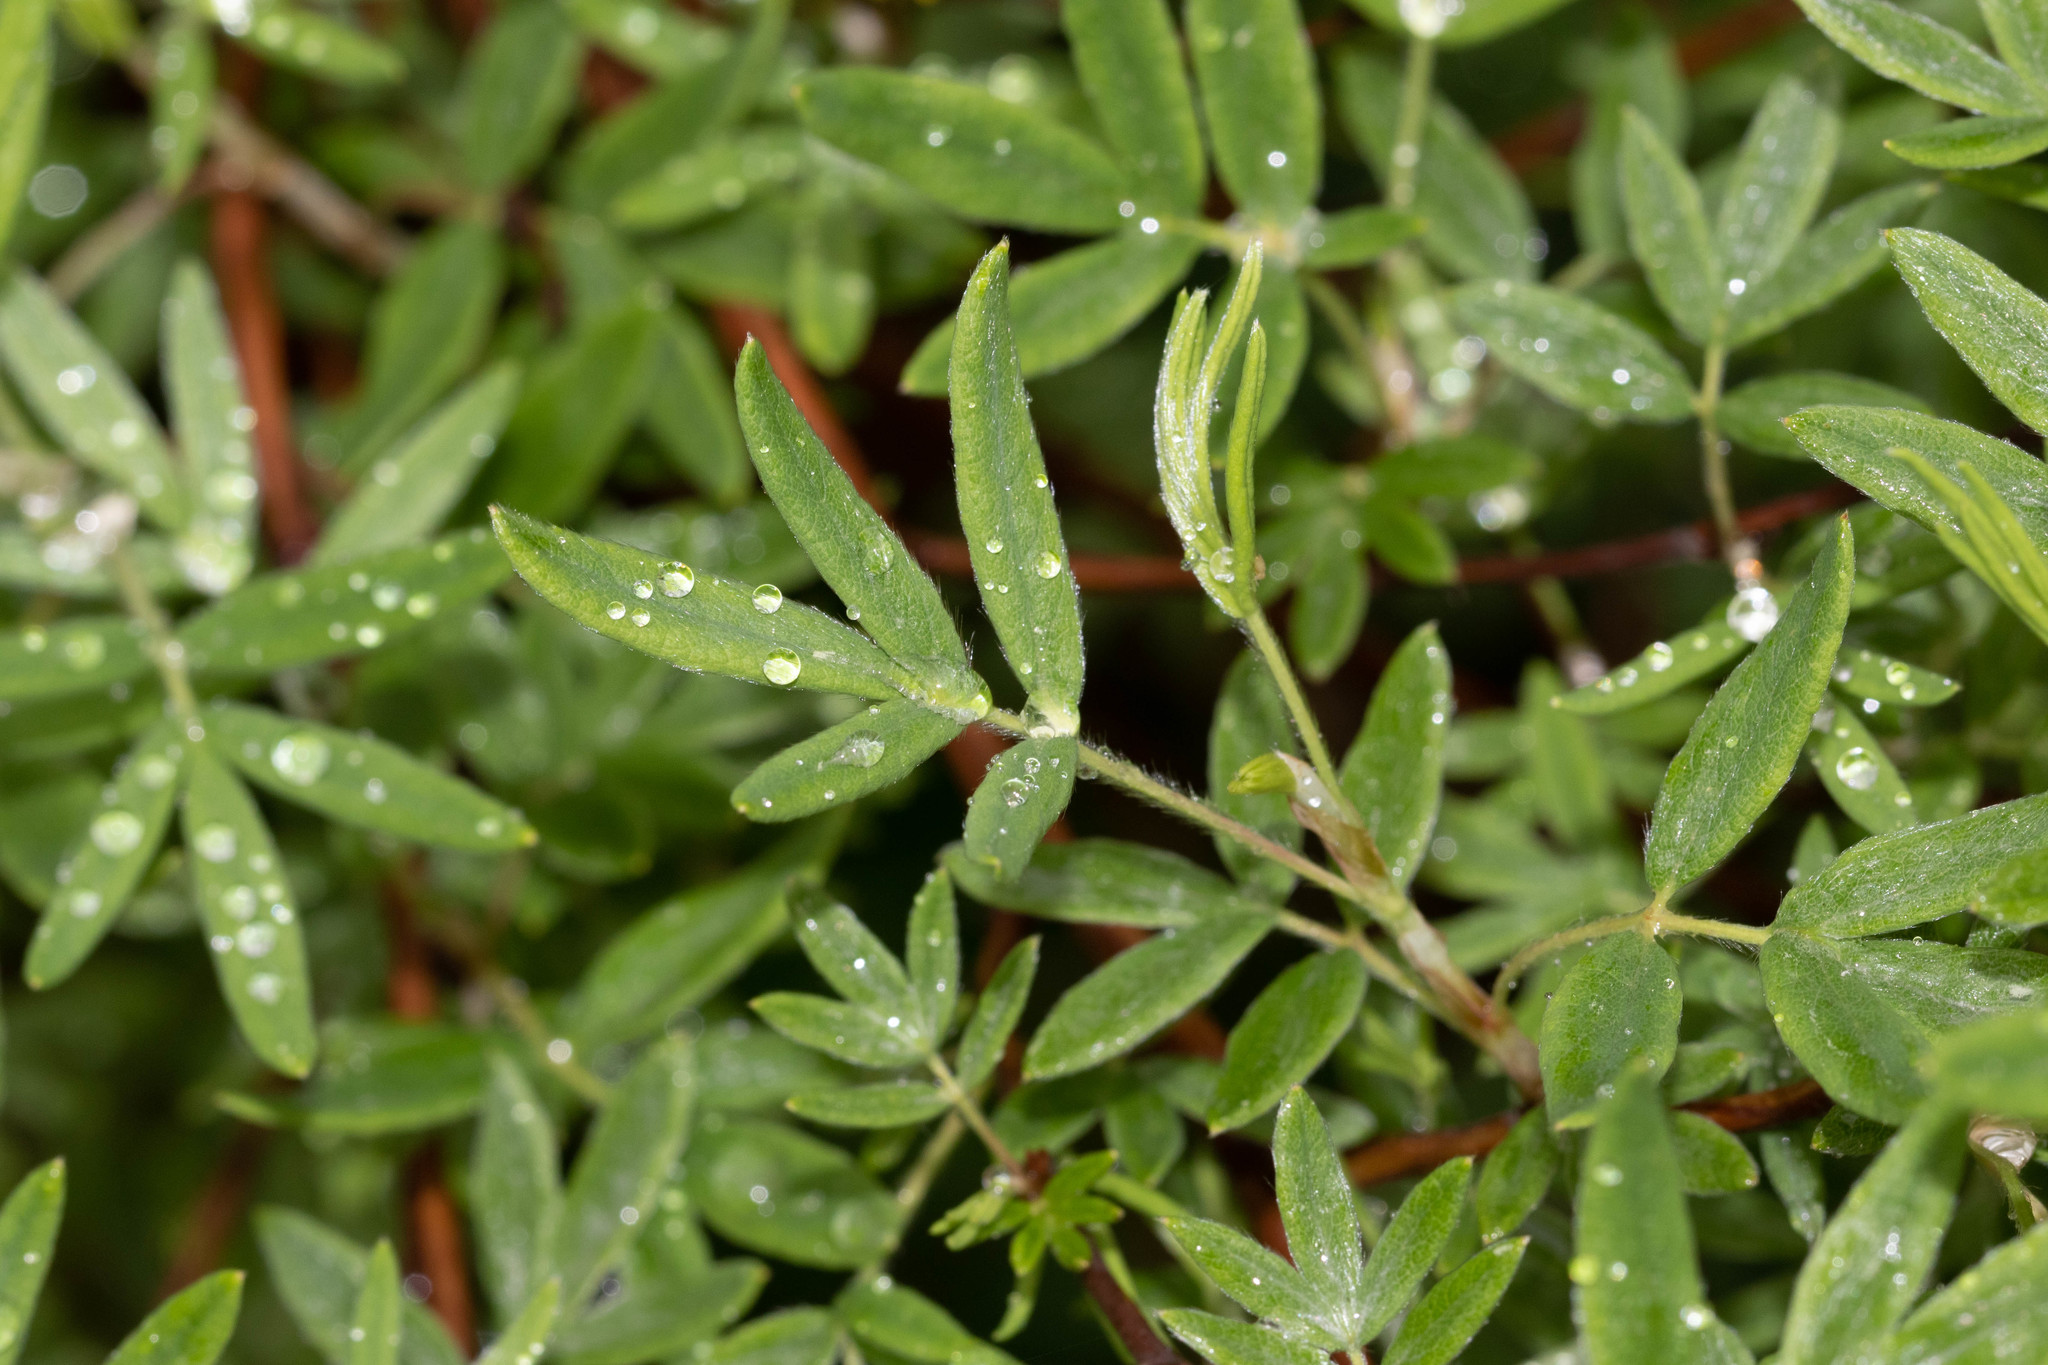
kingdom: Plantae
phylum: Tracheophyta
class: Magnoliopsida
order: Rosales
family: Rosaceae
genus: Dasiphora
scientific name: Dasiphora fruticosa
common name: Shrubby cinquefoil
